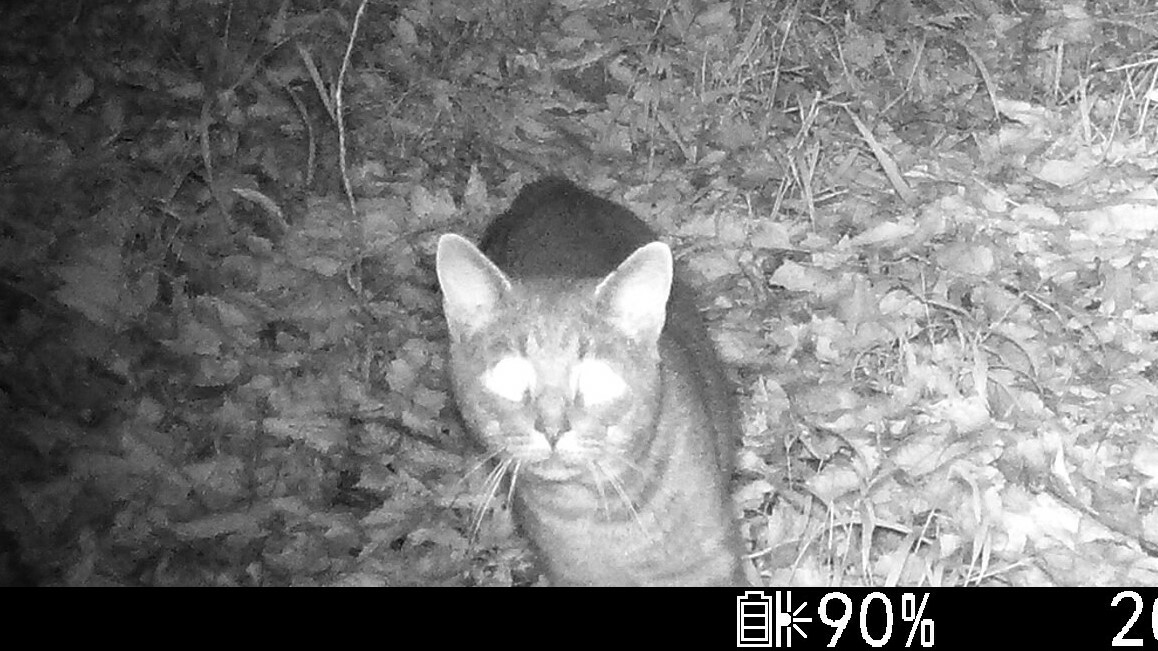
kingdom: Animalia
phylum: Chordata
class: Mammalia
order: Carnivora
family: Felidae
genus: Felis
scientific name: Felis catus
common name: Domestic cat
